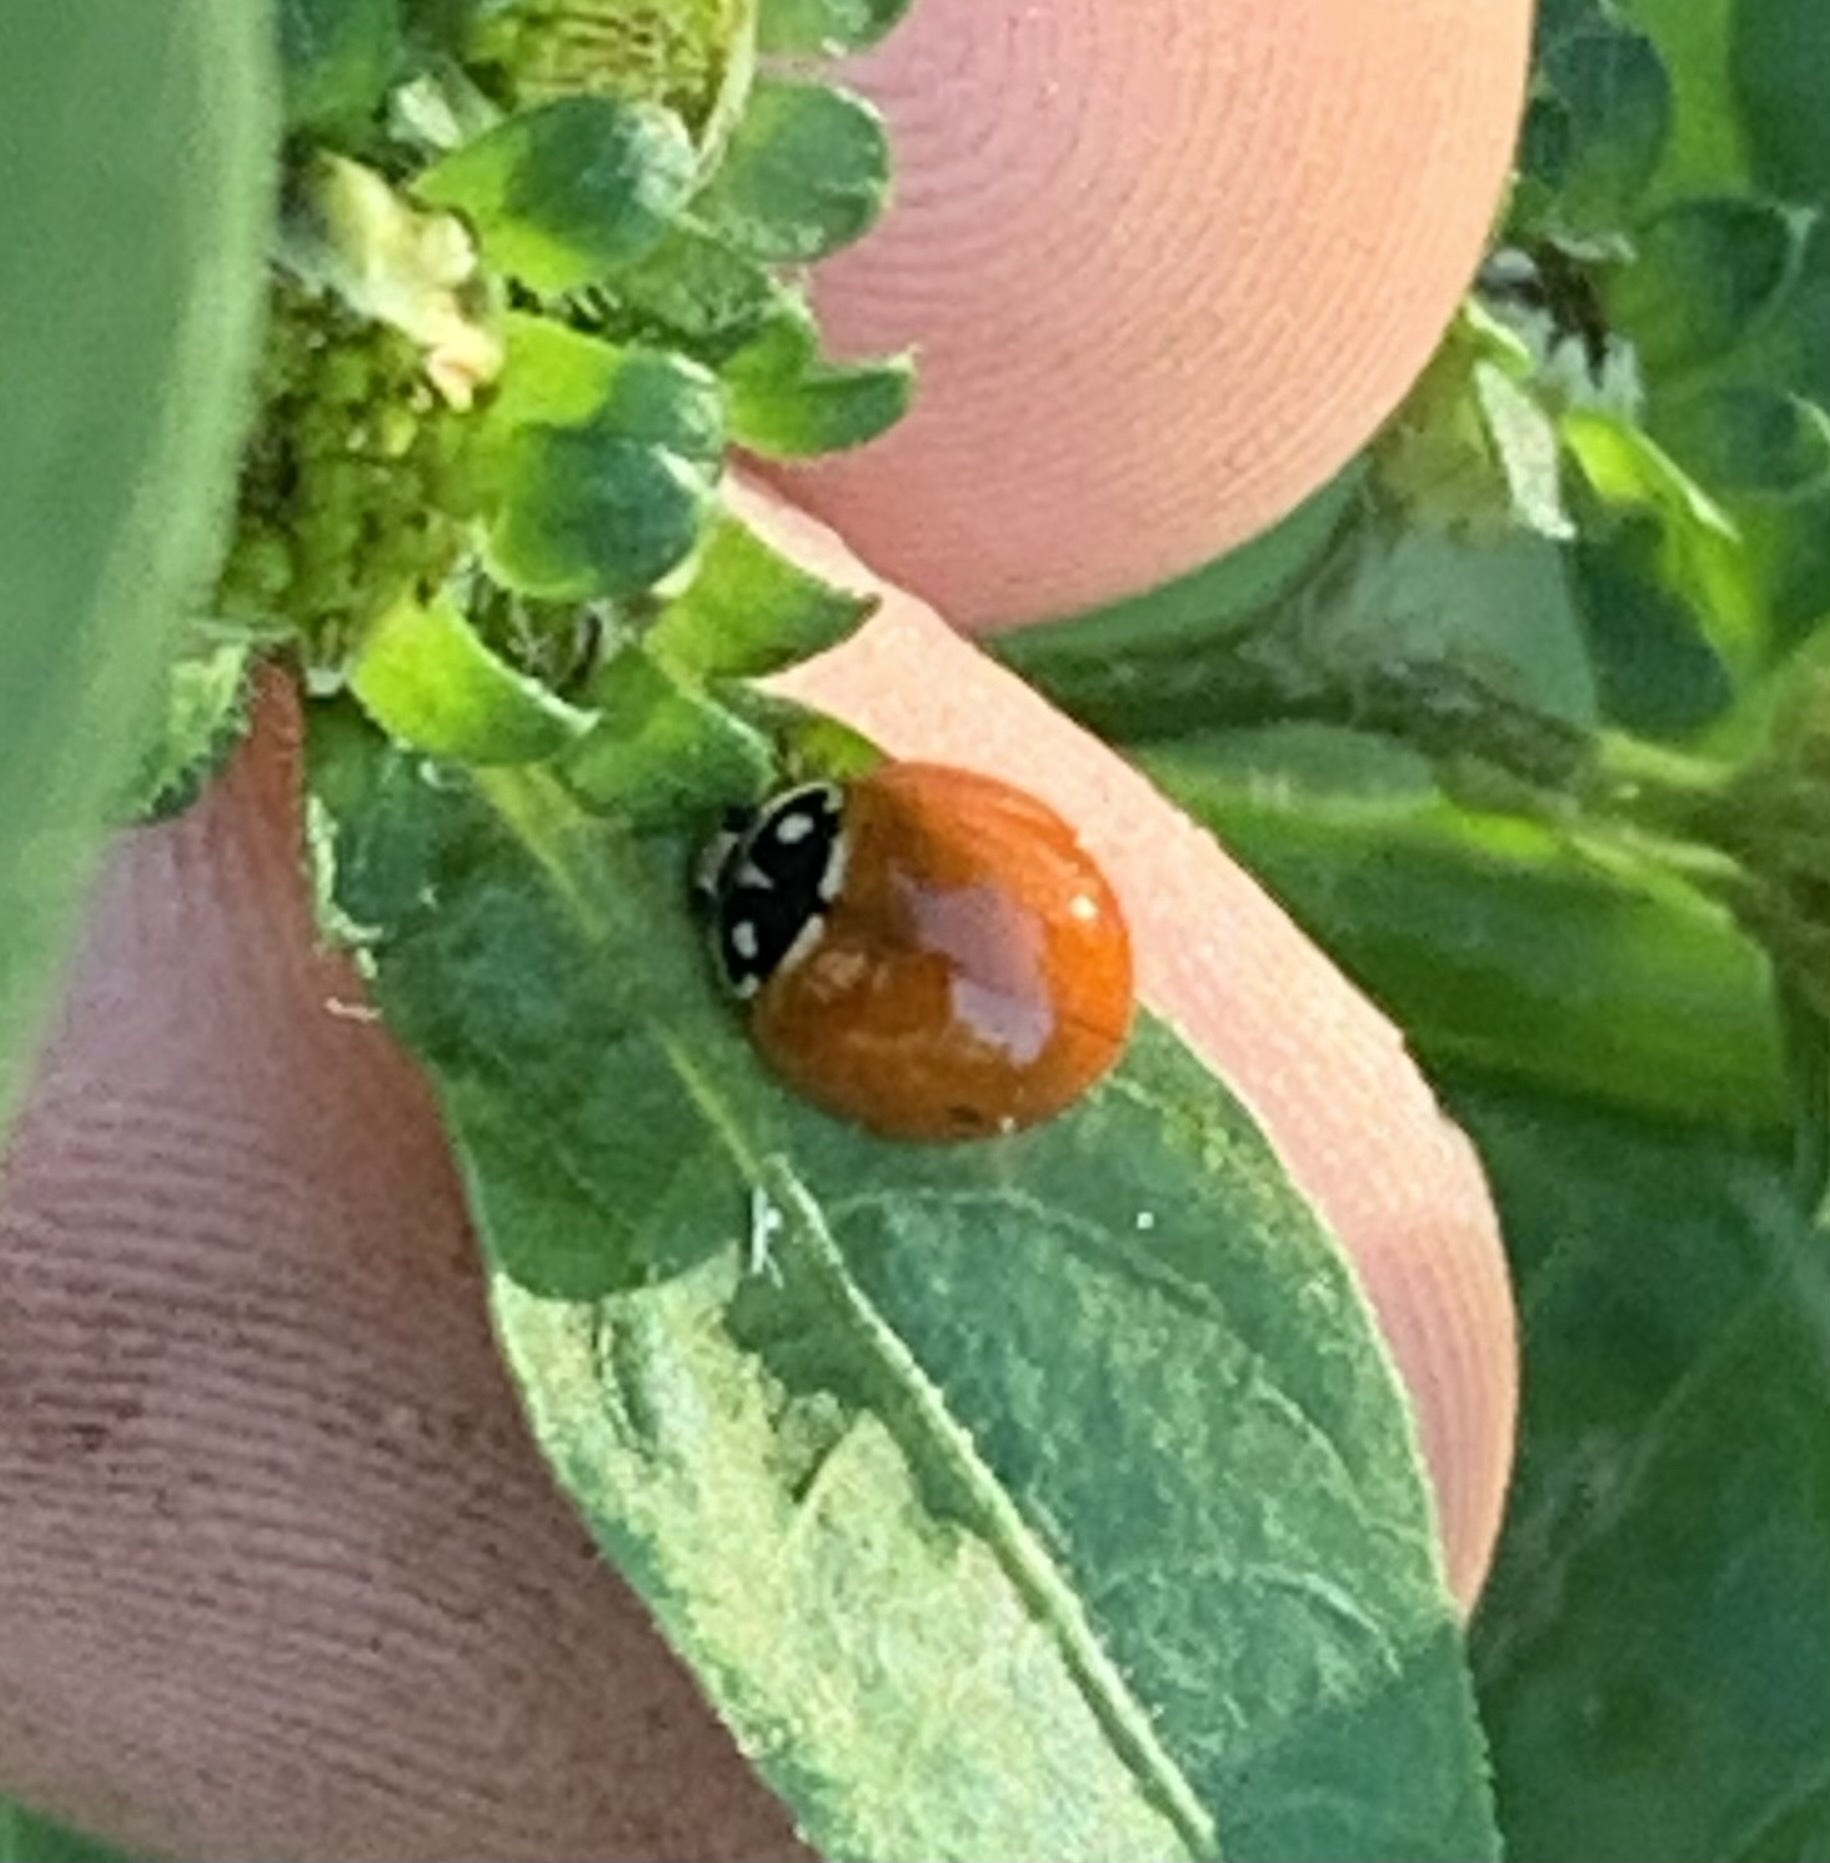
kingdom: Animalia
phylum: Arthropoda
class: Insecta
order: Coleoptera
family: Coccinellidae
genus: Cycloneda
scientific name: Cycloneda sanguinea
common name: Ladybird beetle
